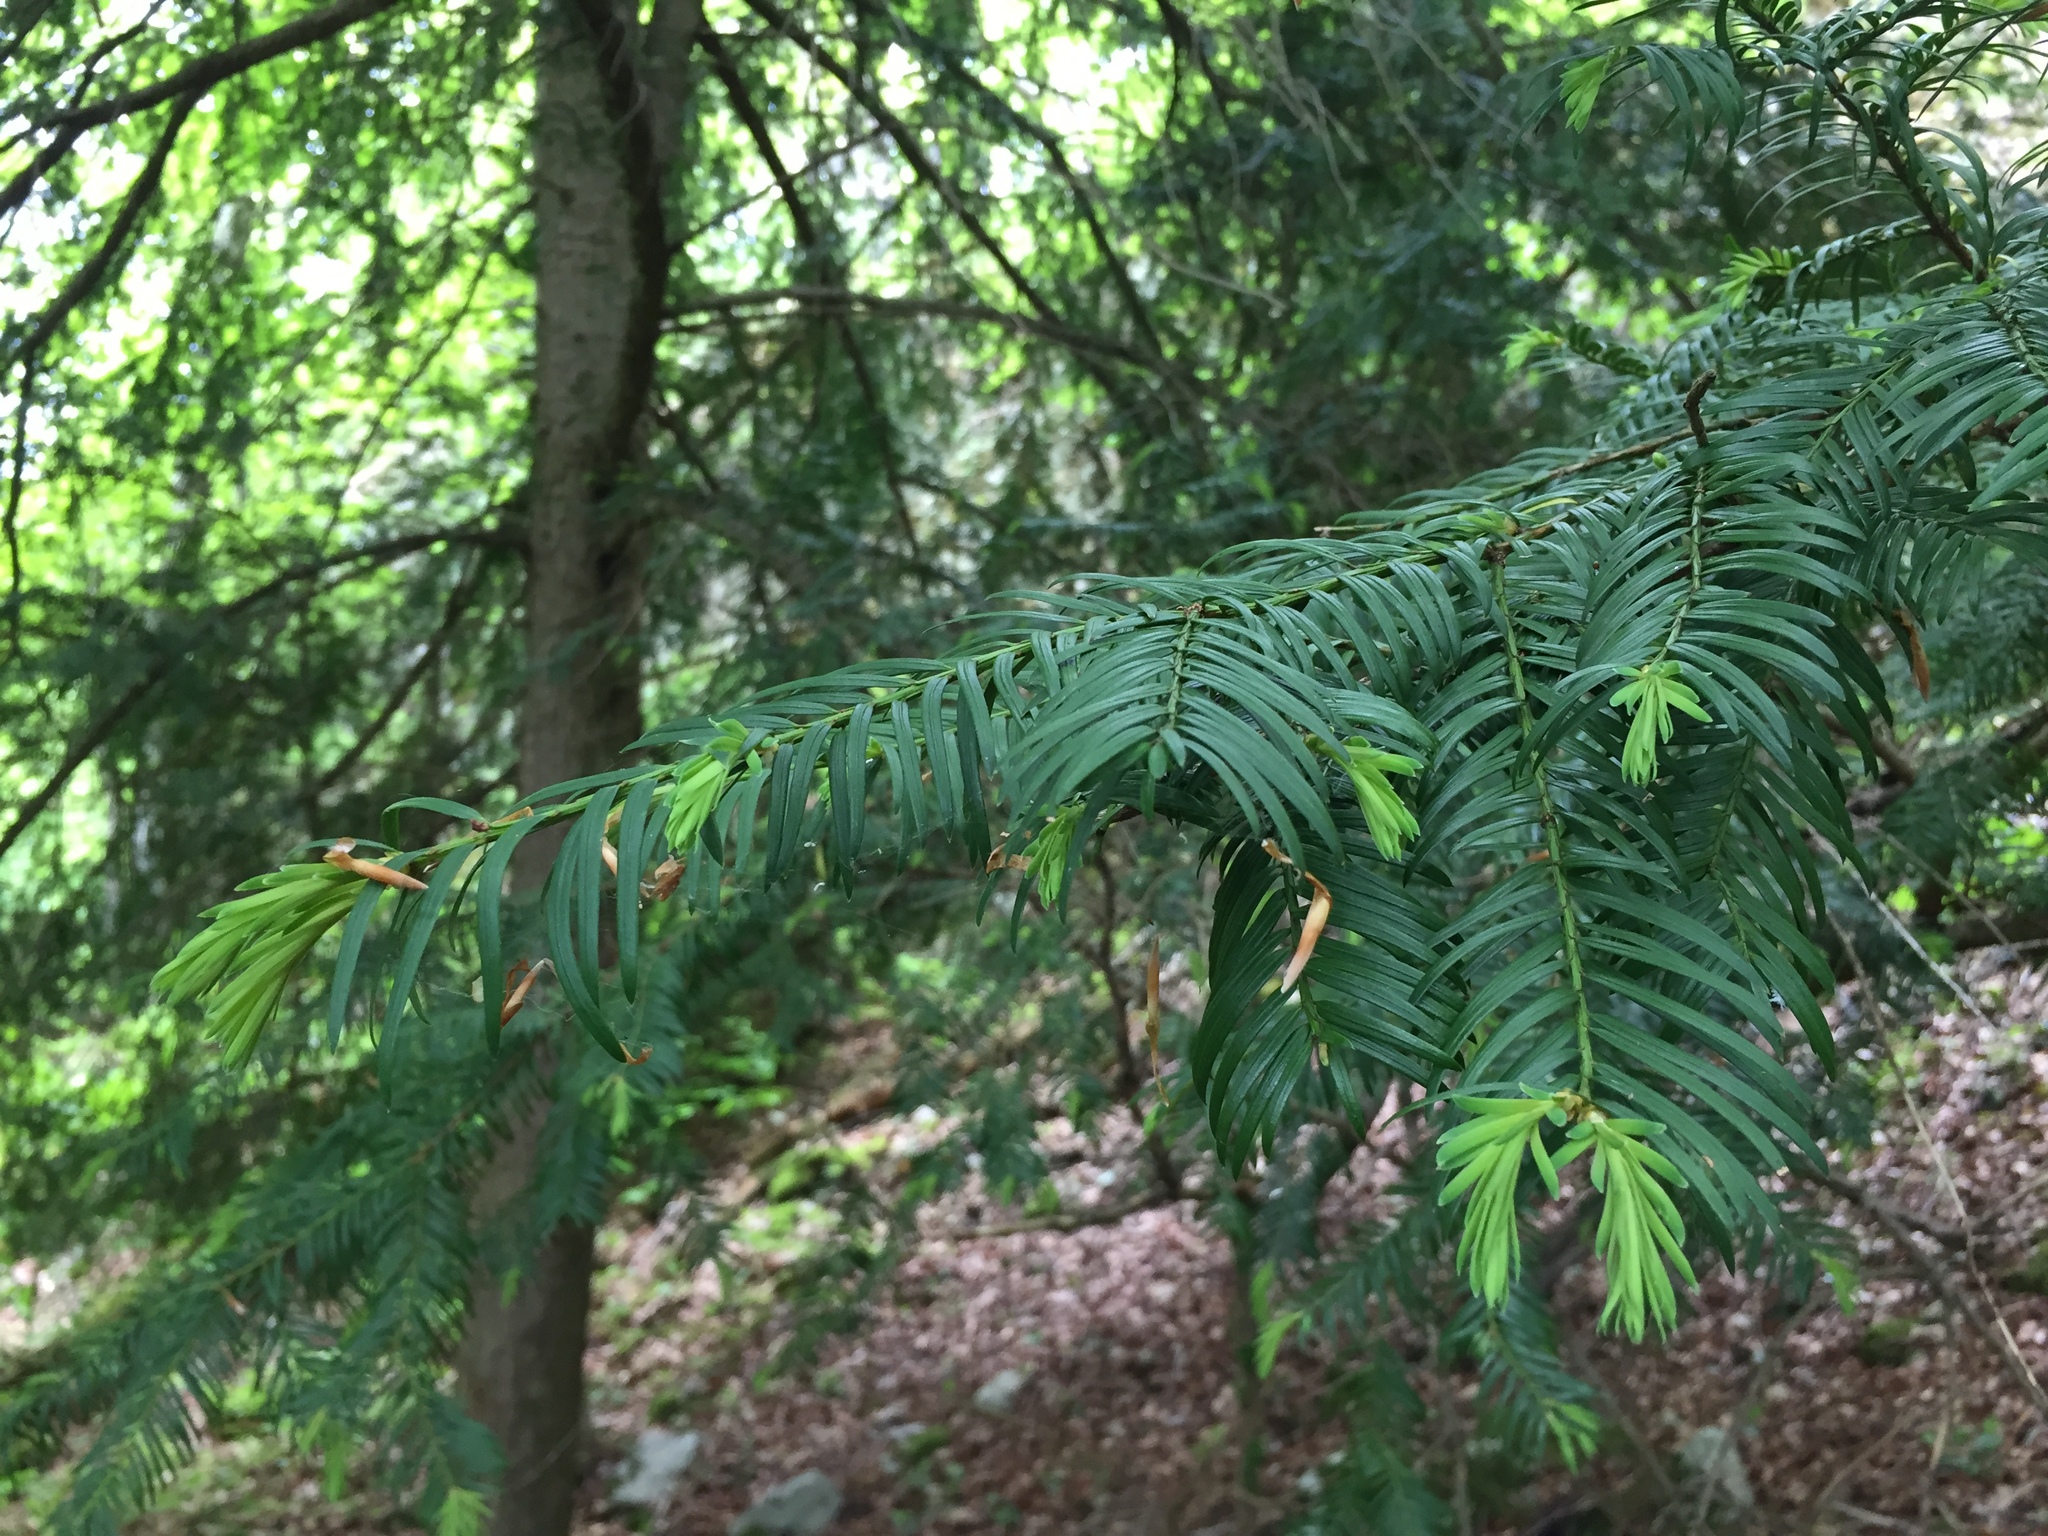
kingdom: Plantae
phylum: Tracheophyta
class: Pinopsida
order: Pinales
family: Taxaceae
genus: Taxus
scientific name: Taxus baccata
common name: Yew
